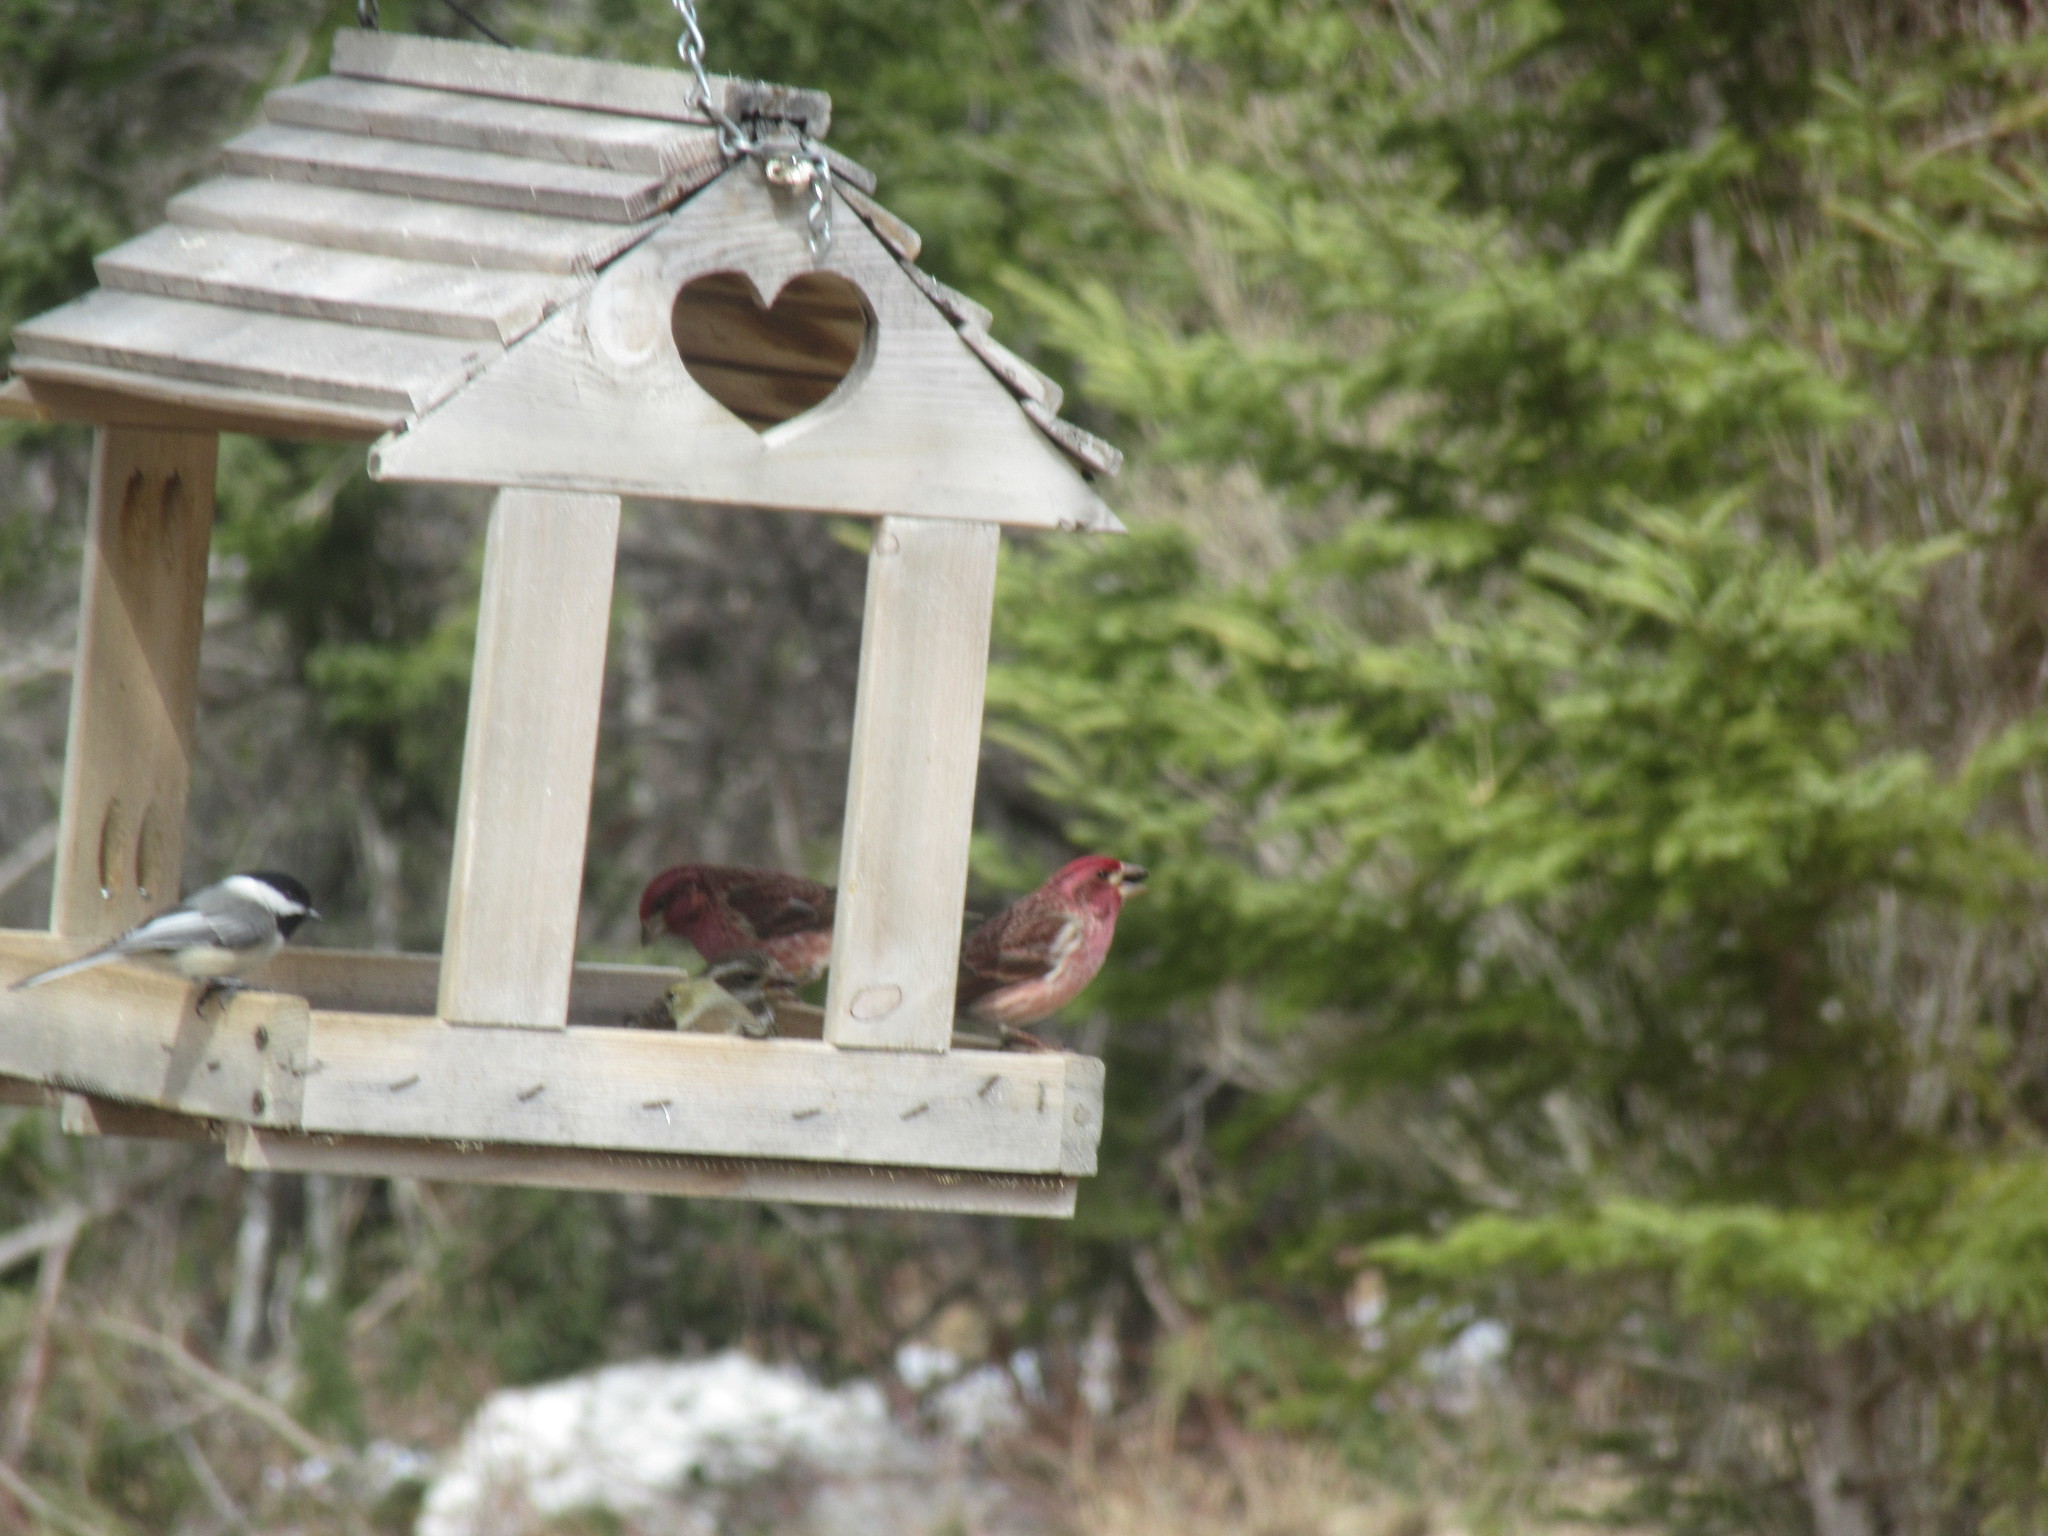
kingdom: Animalia
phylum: Chordata
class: Aves
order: Passeriformes
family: Paridae
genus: Poecile
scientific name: Poecile atricapillus
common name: Black-capped chickadee
